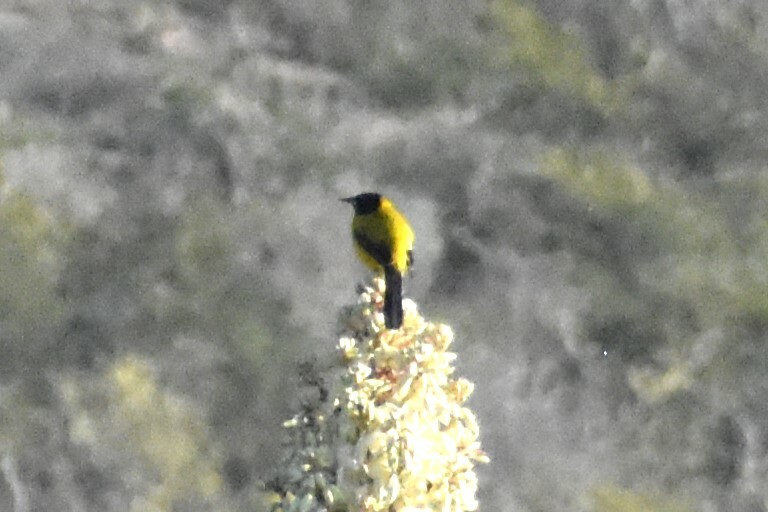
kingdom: Animalia
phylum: Chordata
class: Aves
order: Passeriformes
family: Icteridae
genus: Icterus
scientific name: Icterus graduacauda
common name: Audubon's oriole
